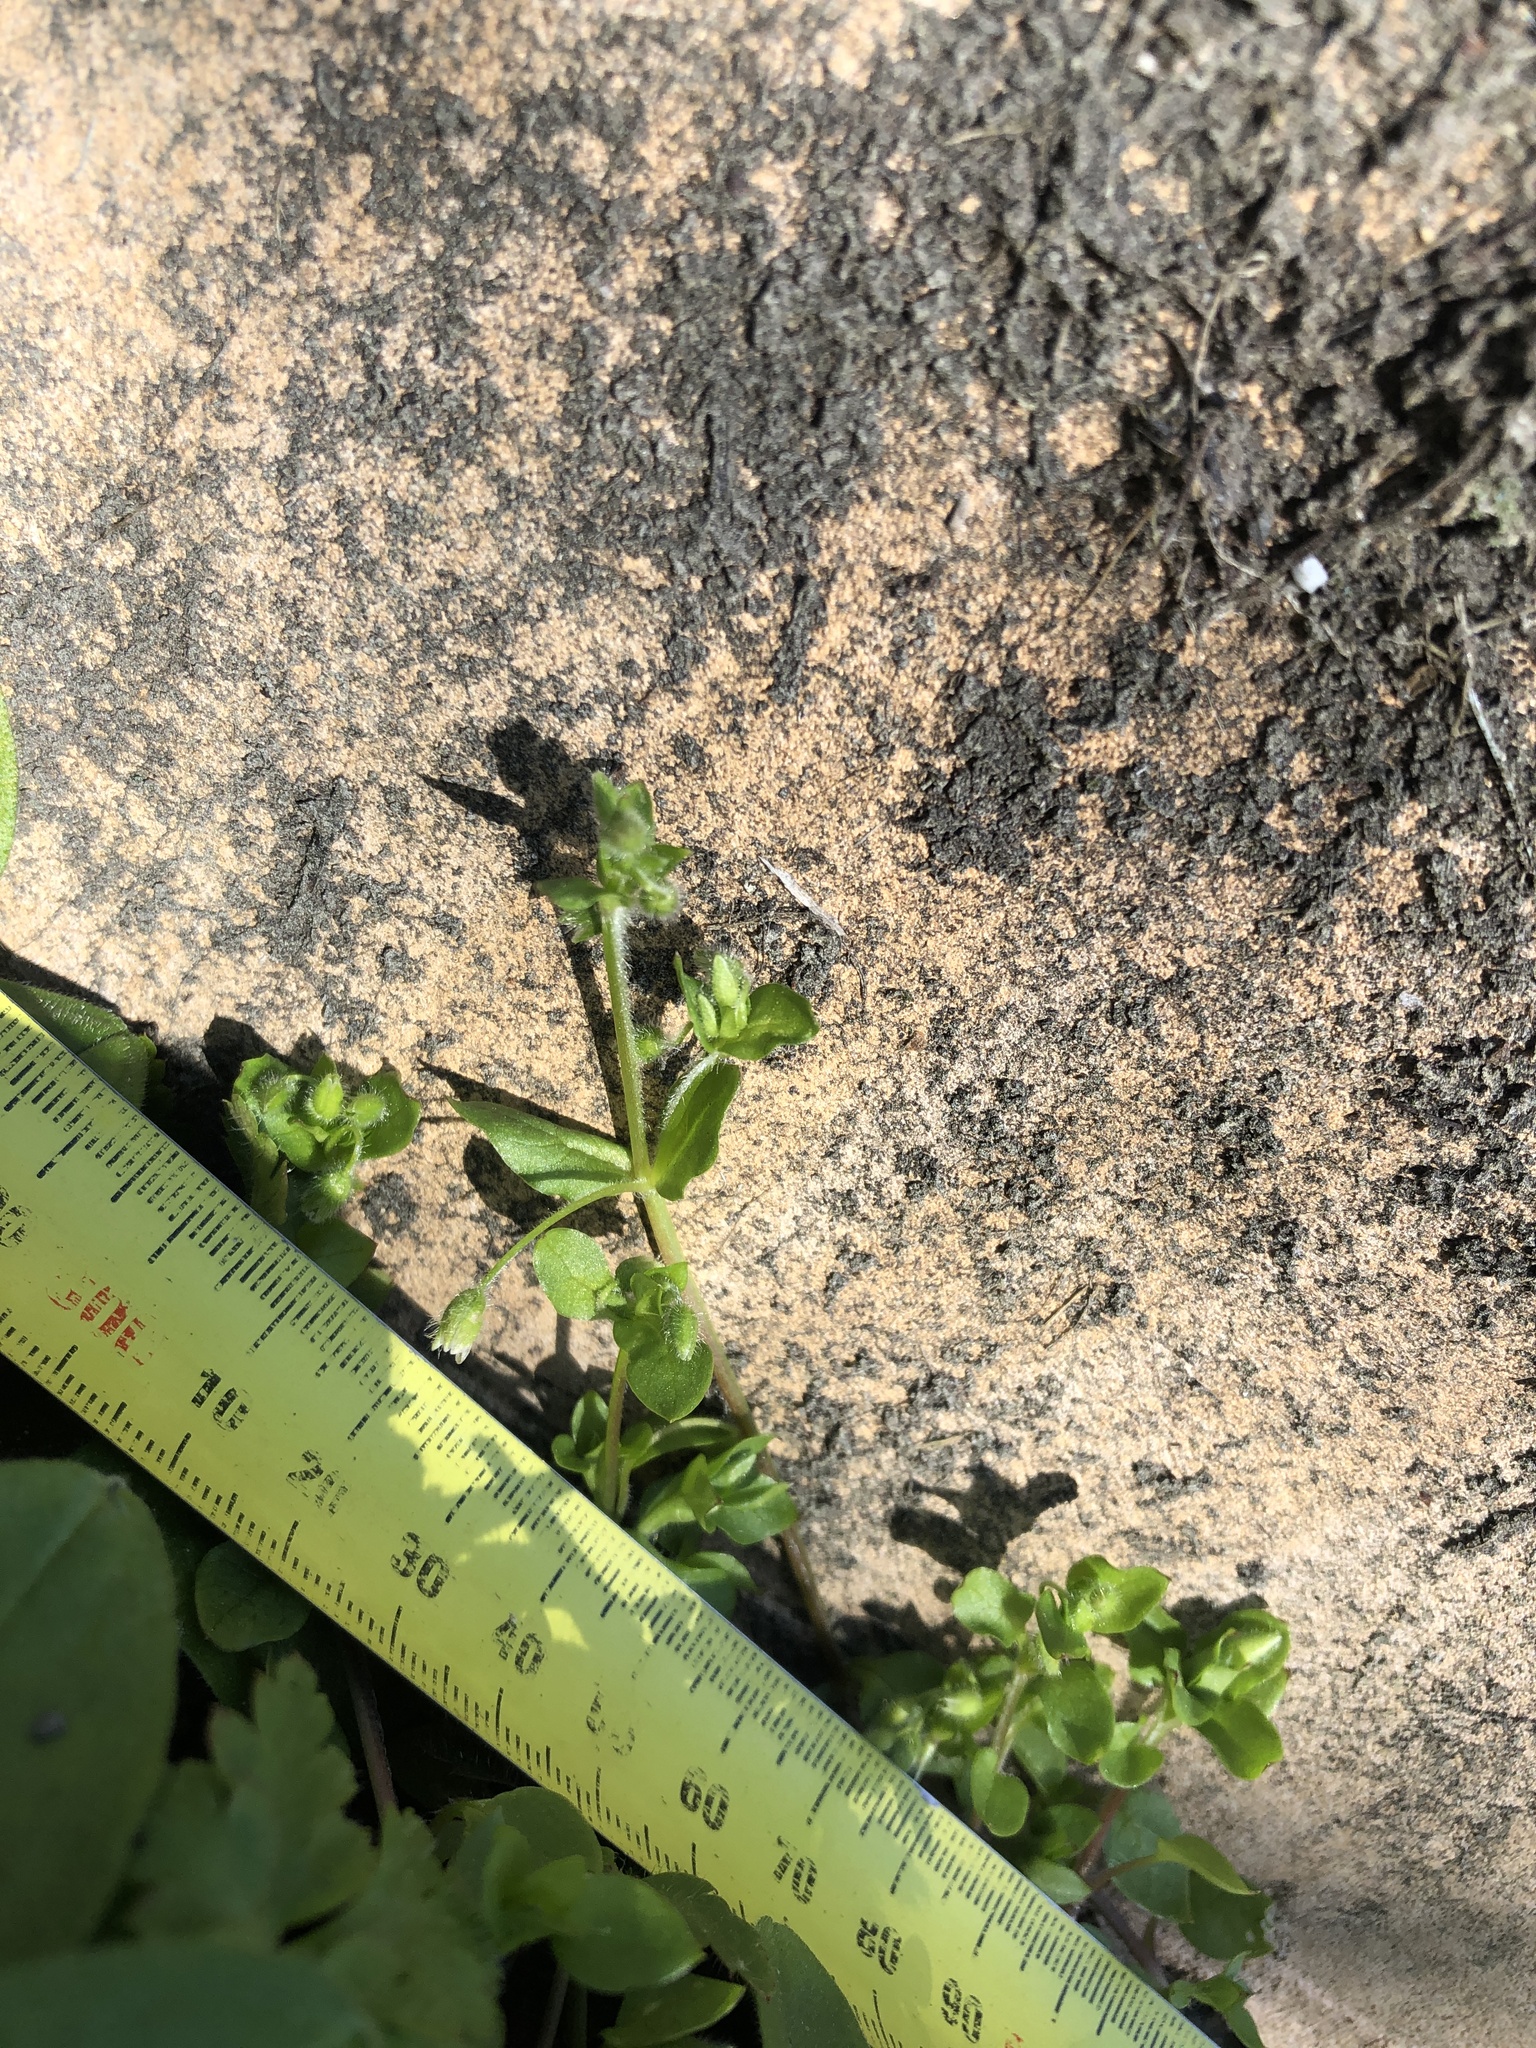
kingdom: Plantae
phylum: Tracheophyta
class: Magnoliopsida
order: Caryophyllales
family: Caryophyllaceae
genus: Stellaria
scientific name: Stellaria media
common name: Common chickweed
